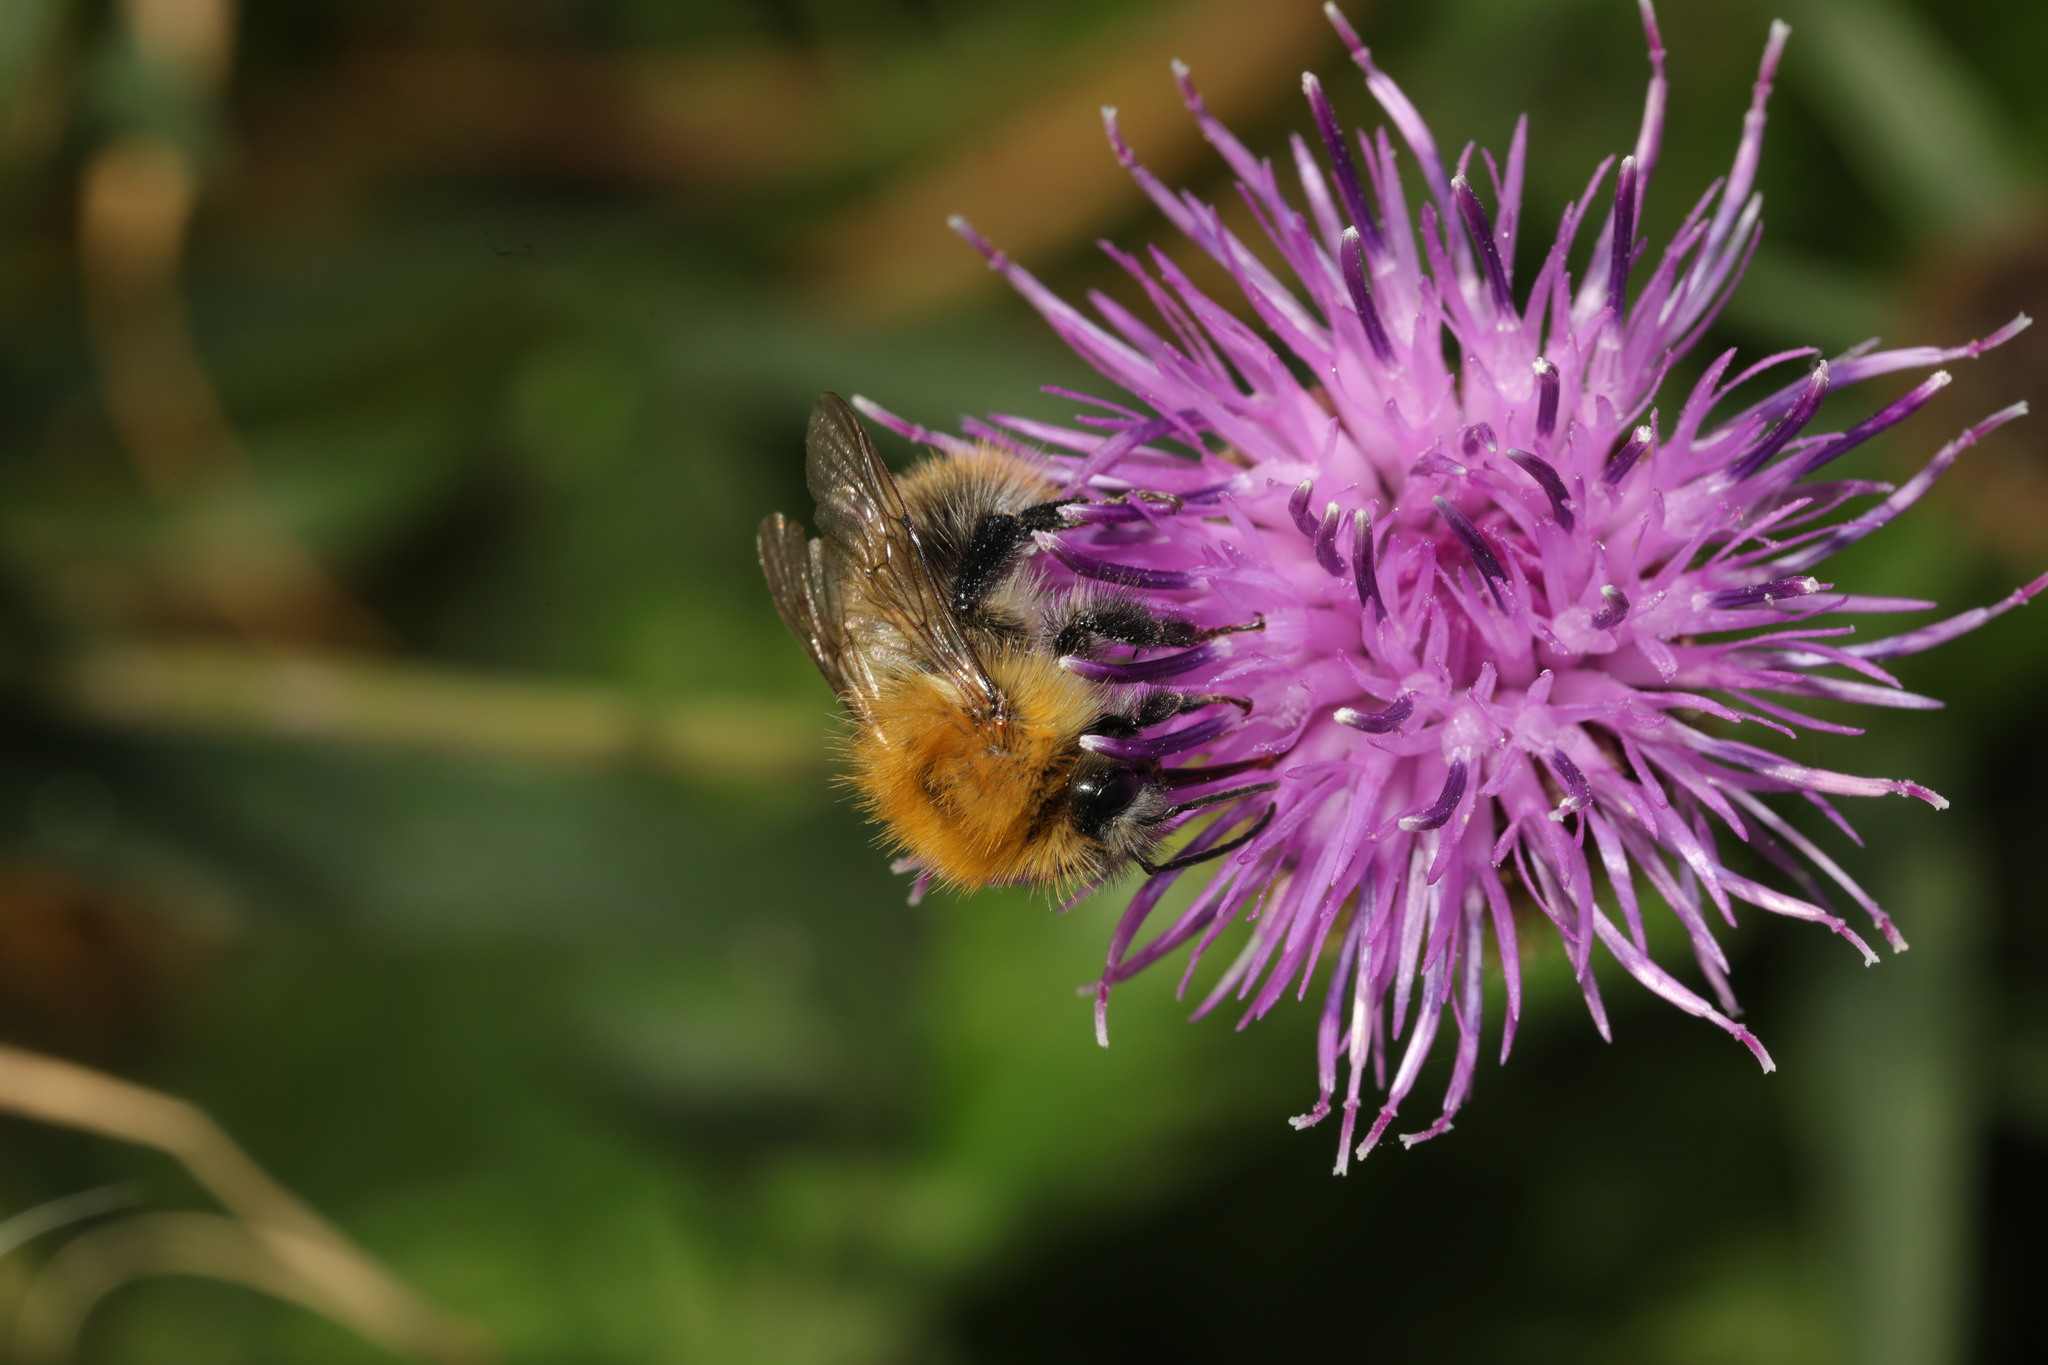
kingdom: Animalia
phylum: Arthropoda
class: Insecta
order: Hymenoptera
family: Apidae
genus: Bombus
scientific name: Bombus pascuorum
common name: Common carder bee
